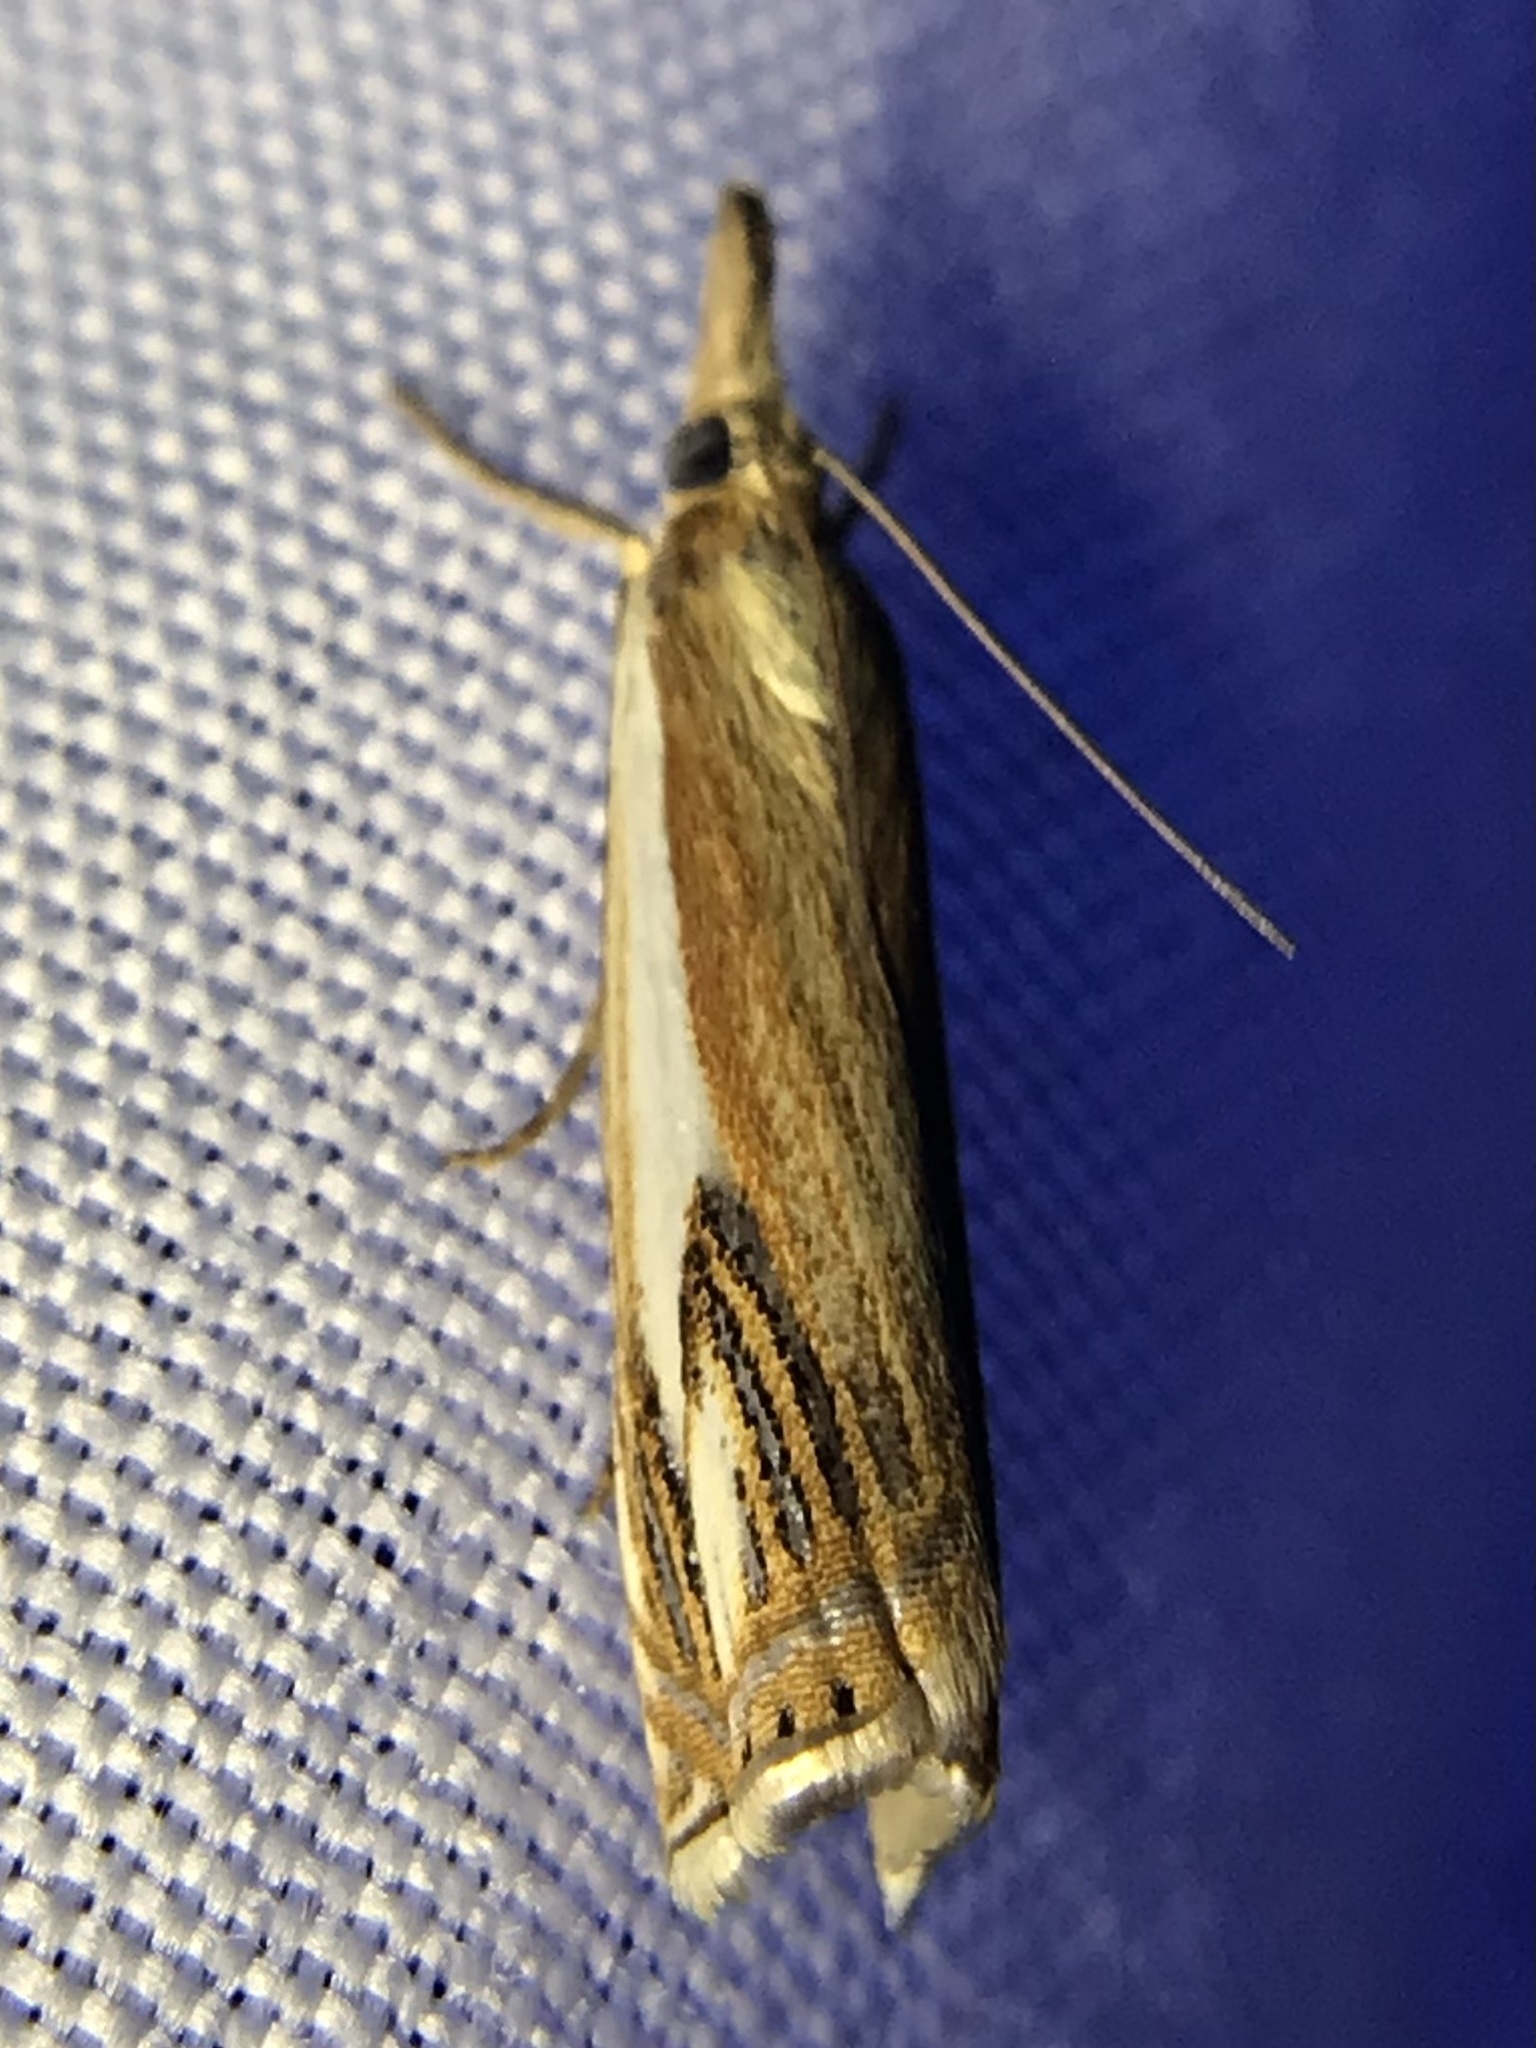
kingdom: Animalia
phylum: Arthropoda
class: Insecta
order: Lepidoptera
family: Crambidae
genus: Crambus
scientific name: Crambus agitatellus
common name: Double-banded grass-veneer
